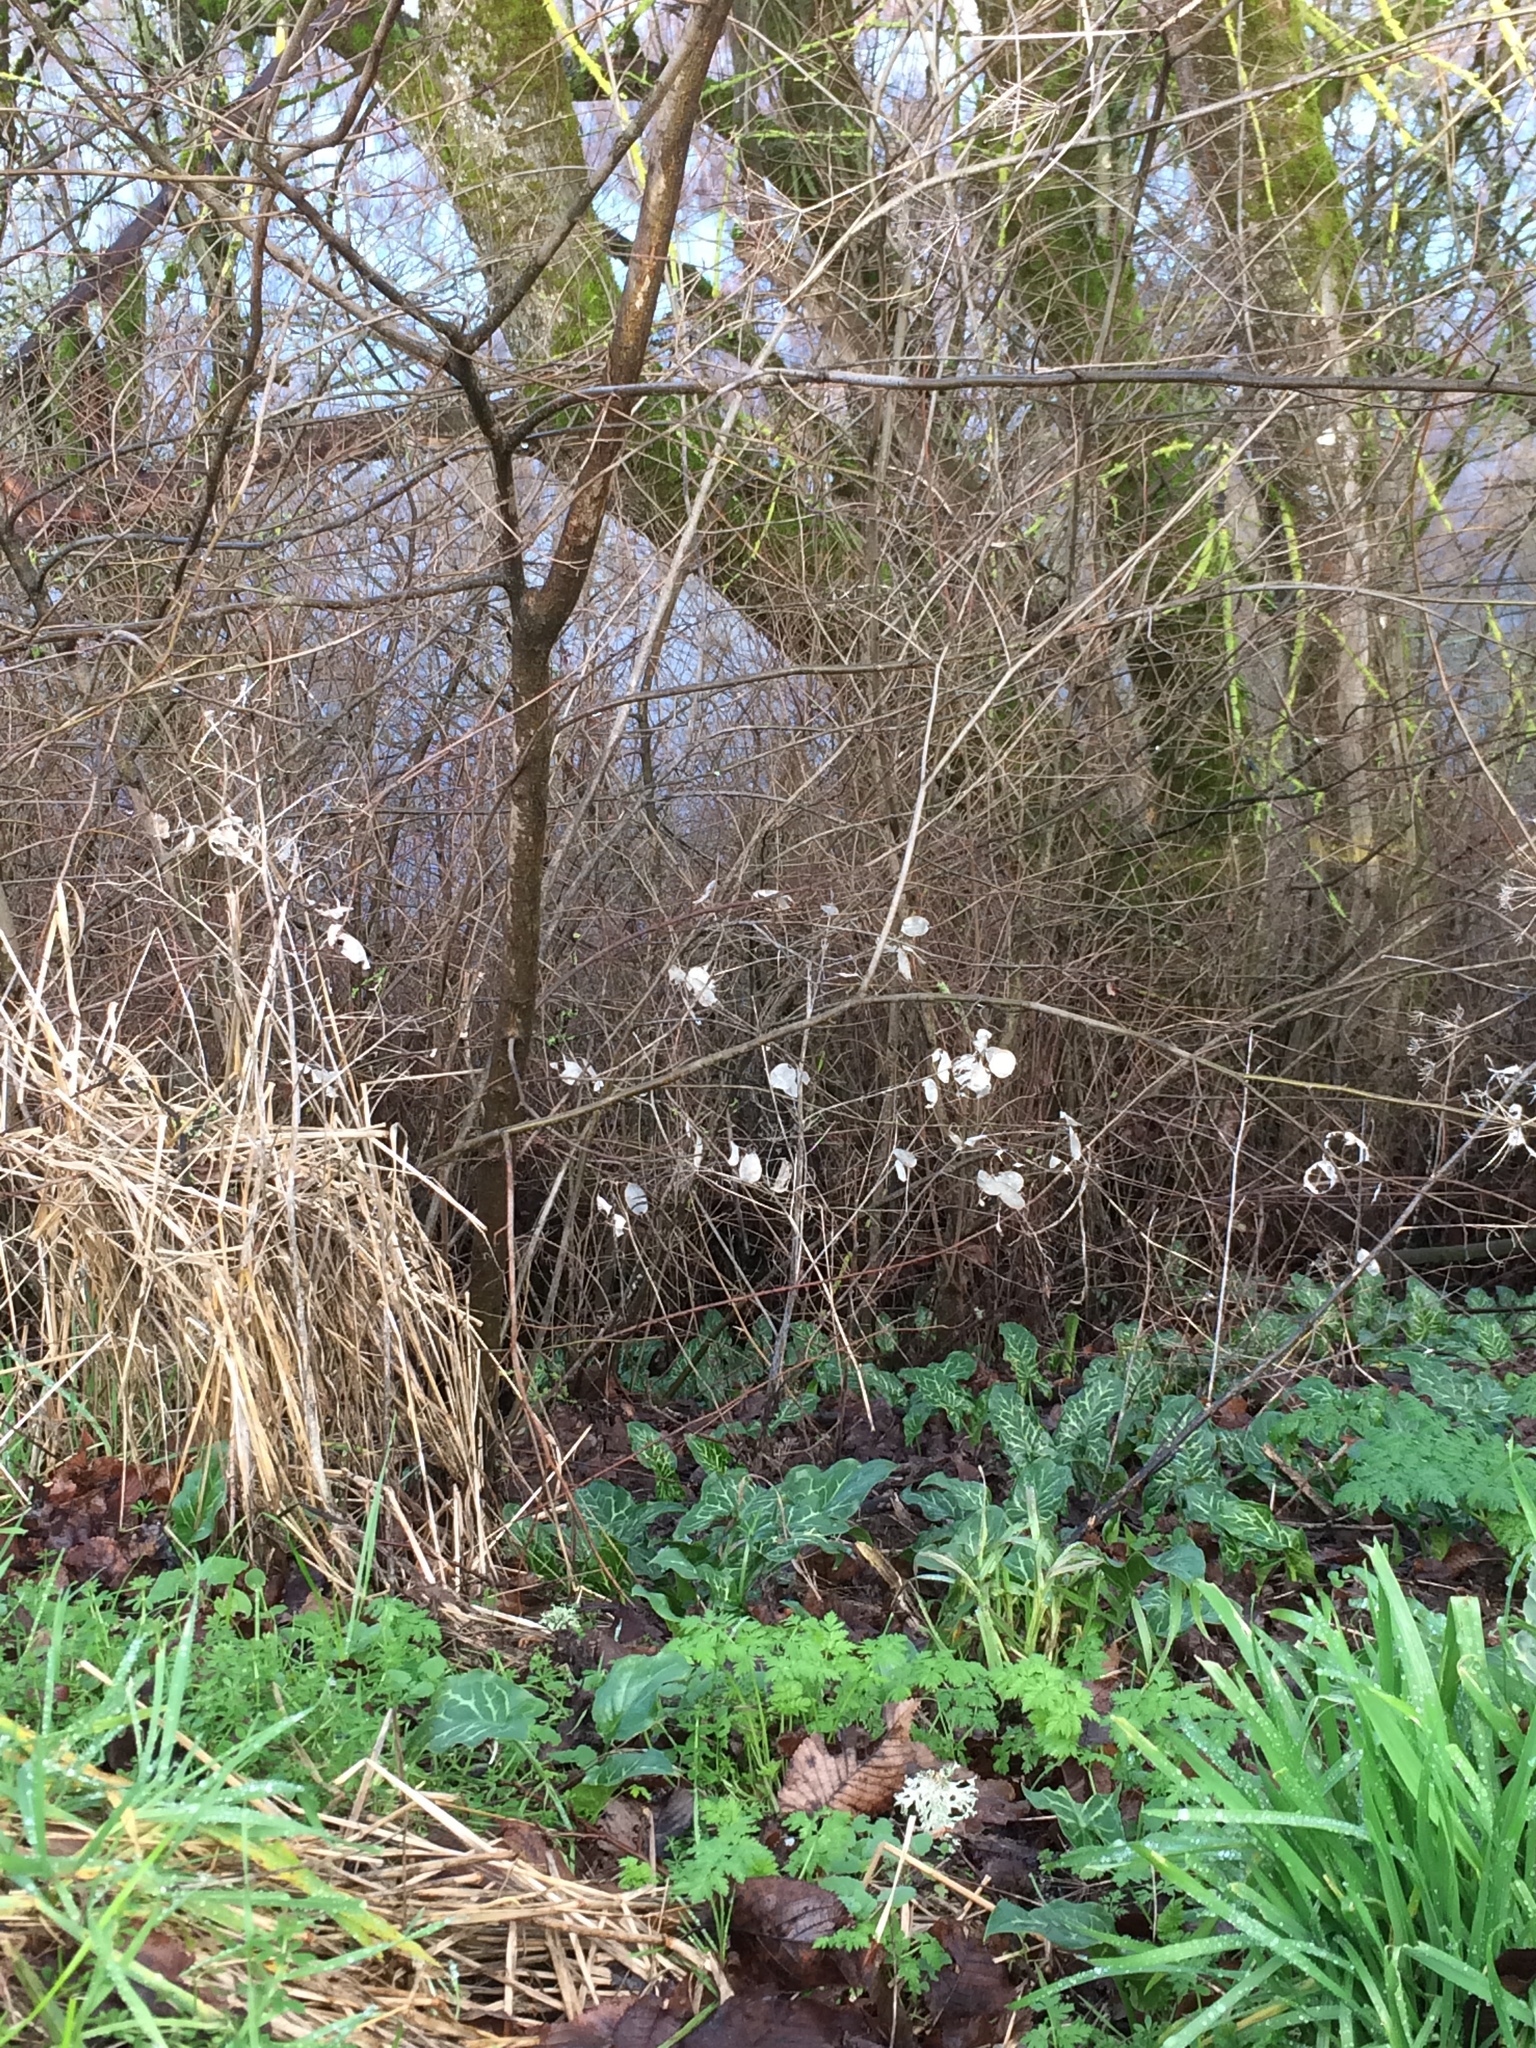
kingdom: Plantae
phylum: Tracheophyta
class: Magnoliopsida
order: Brassicales
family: Brassicaceae
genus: Lunaria
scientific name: Lunaria annua
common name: Honesty
